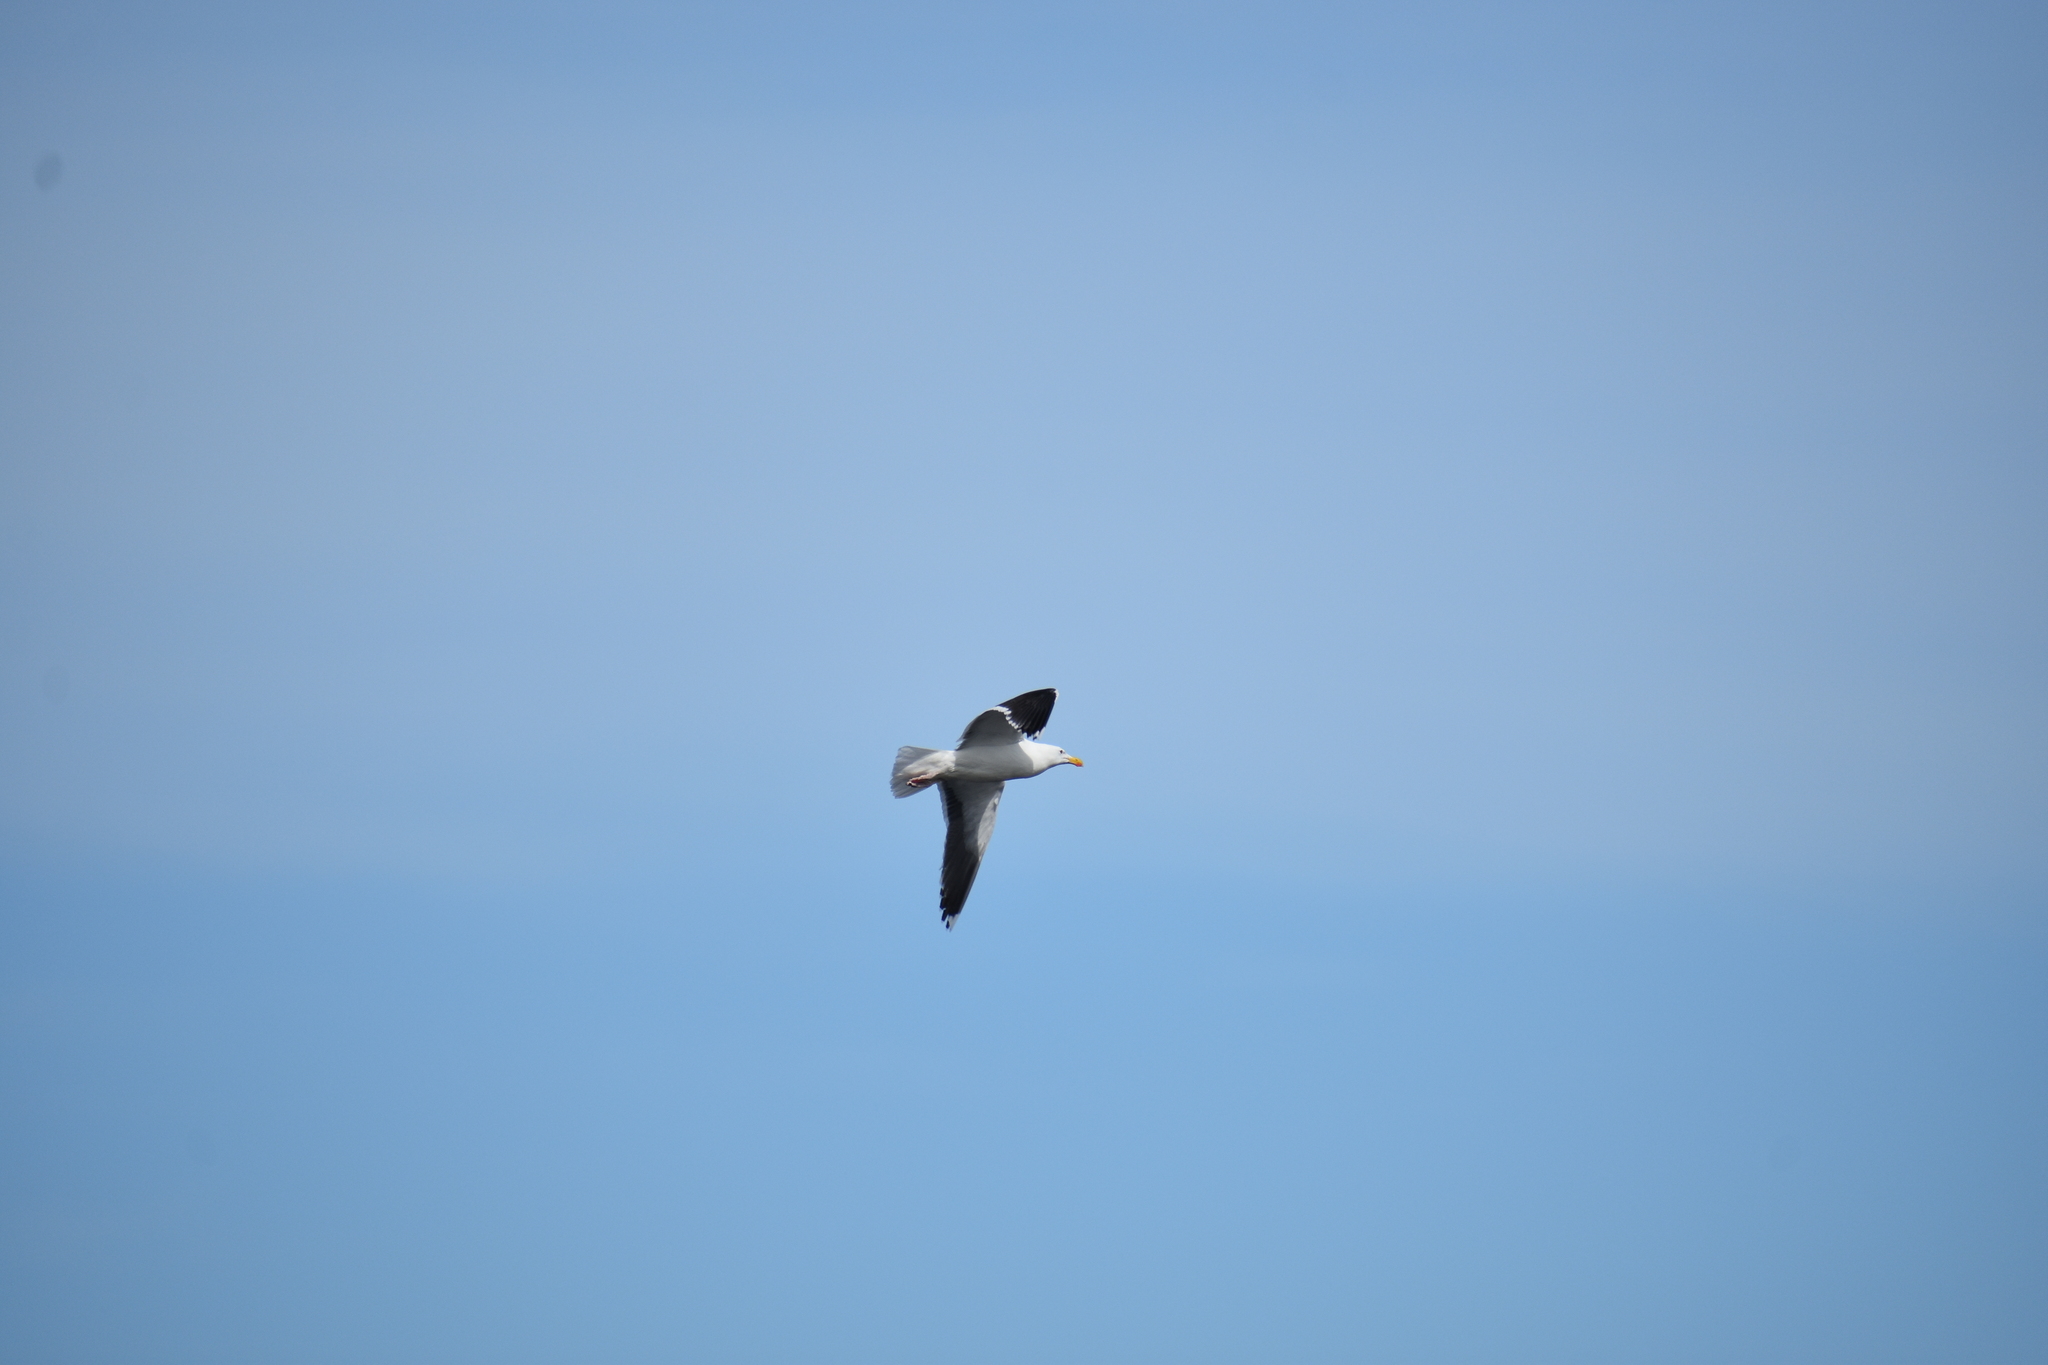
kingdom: Animalia
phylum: Chordata
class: Aves
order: Charadriiformes
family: Laridae
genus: Larus
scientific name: Larus marinus
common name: Great black-backed gull
